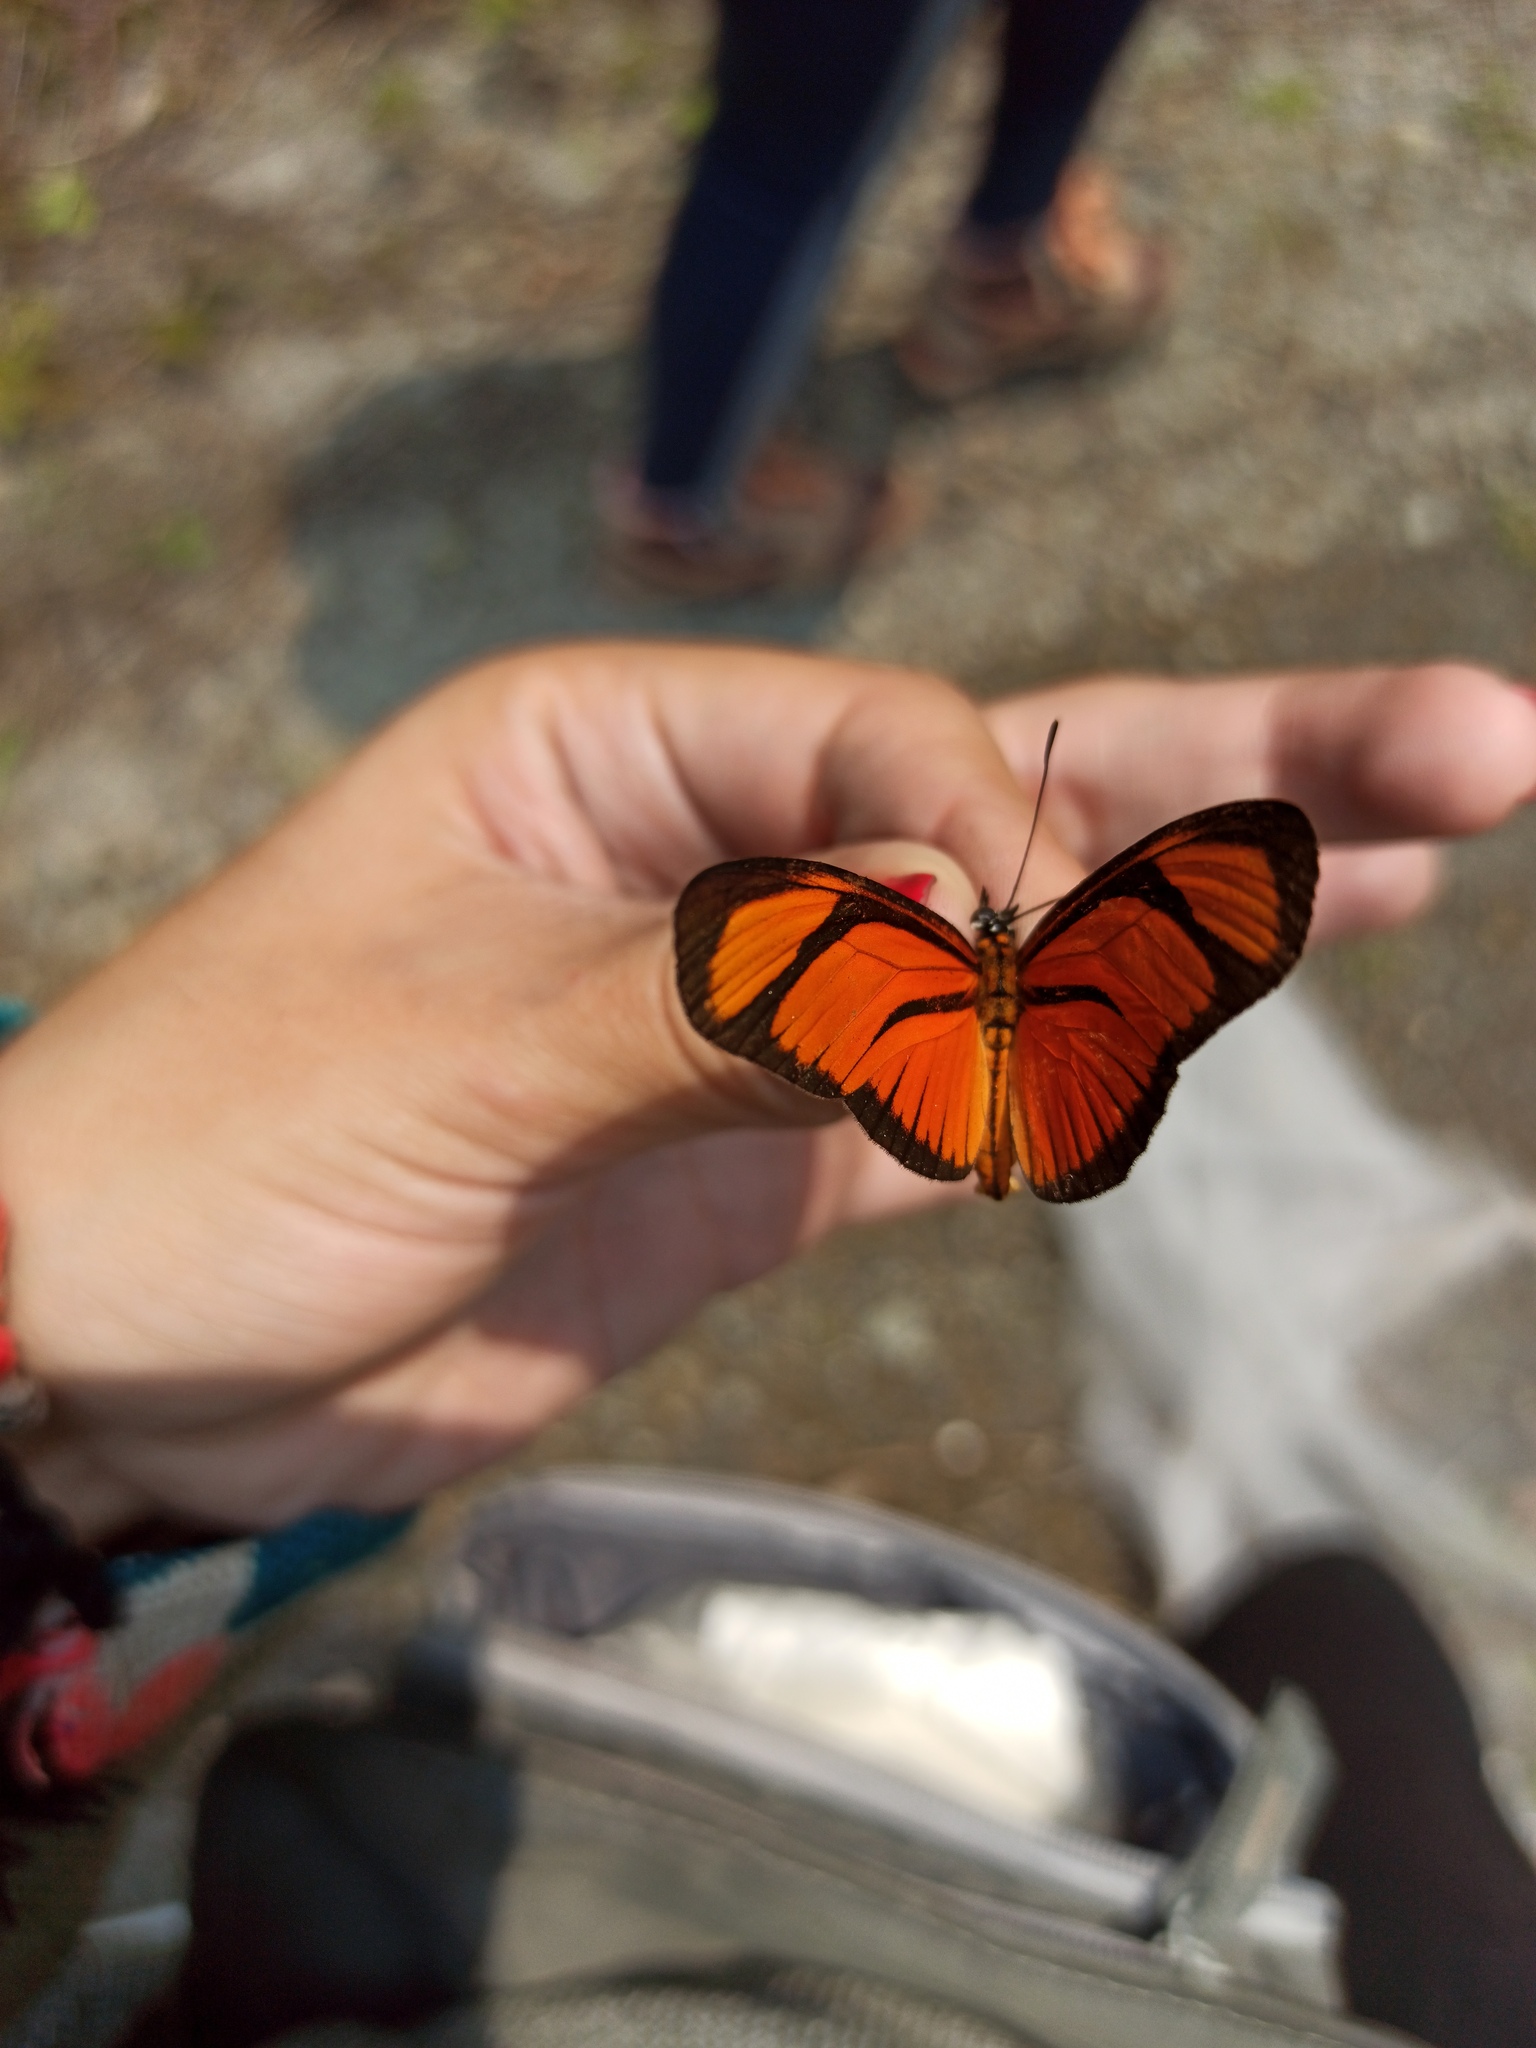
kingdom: Animalia
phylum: Arthropoda
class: Insecta
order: Lepidoptera
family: Nymphalidae
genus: Heliconius
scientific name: Heliconius aliphera
